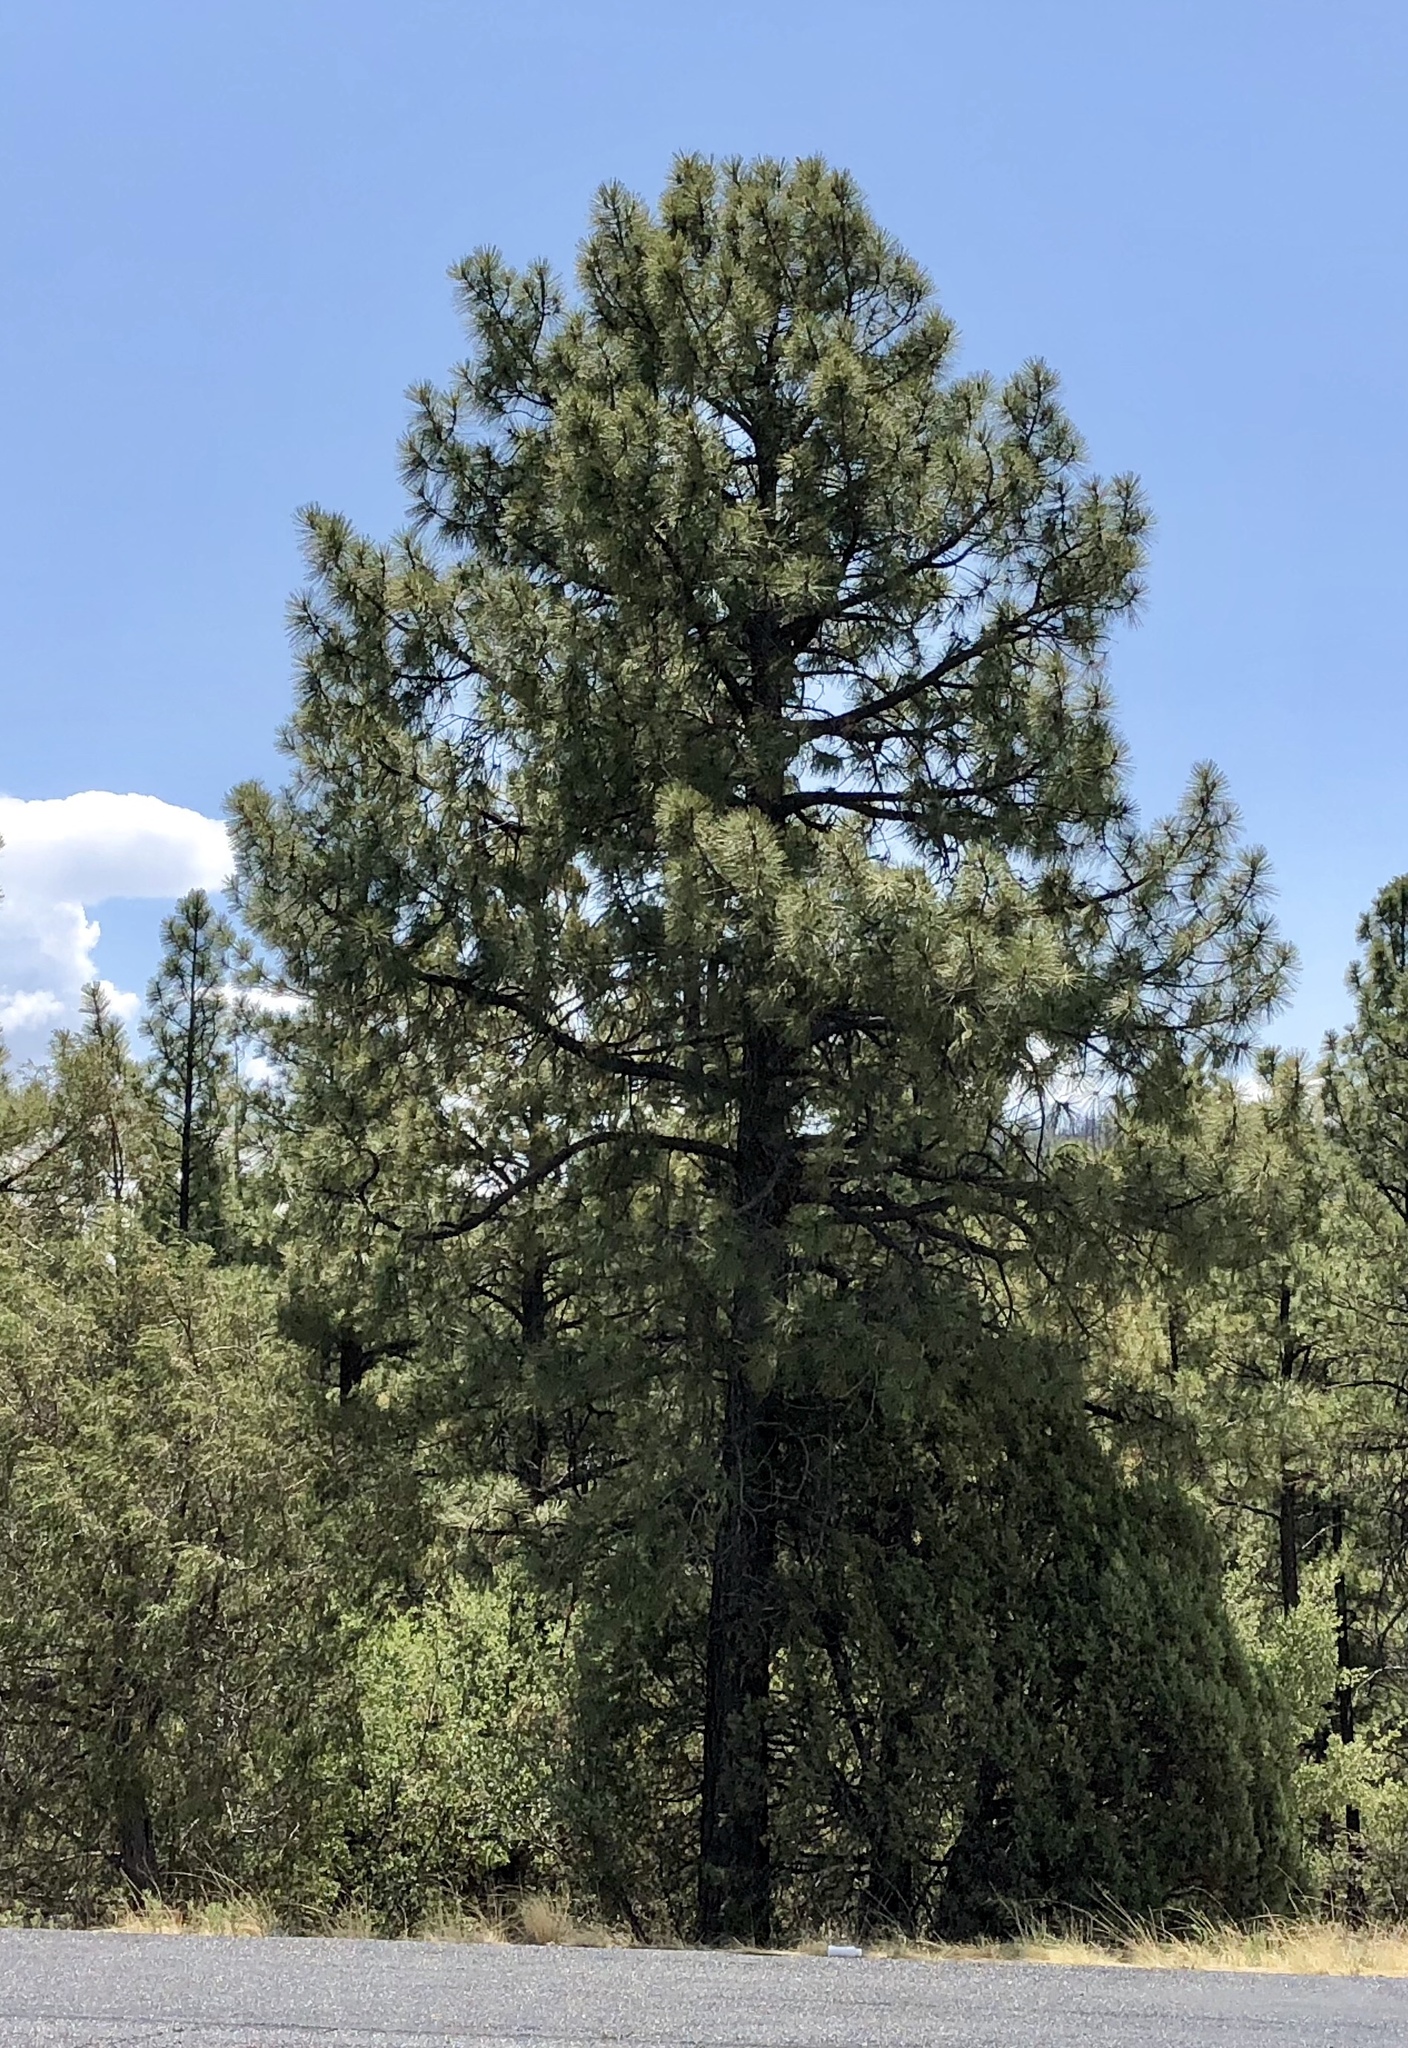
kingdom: Plantae
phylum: Tracheophyta
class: Pinopsida
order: Pinales
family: Pinaceae
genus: Pinus
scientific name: Pinus ponderosa
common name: Western yellow-pine
